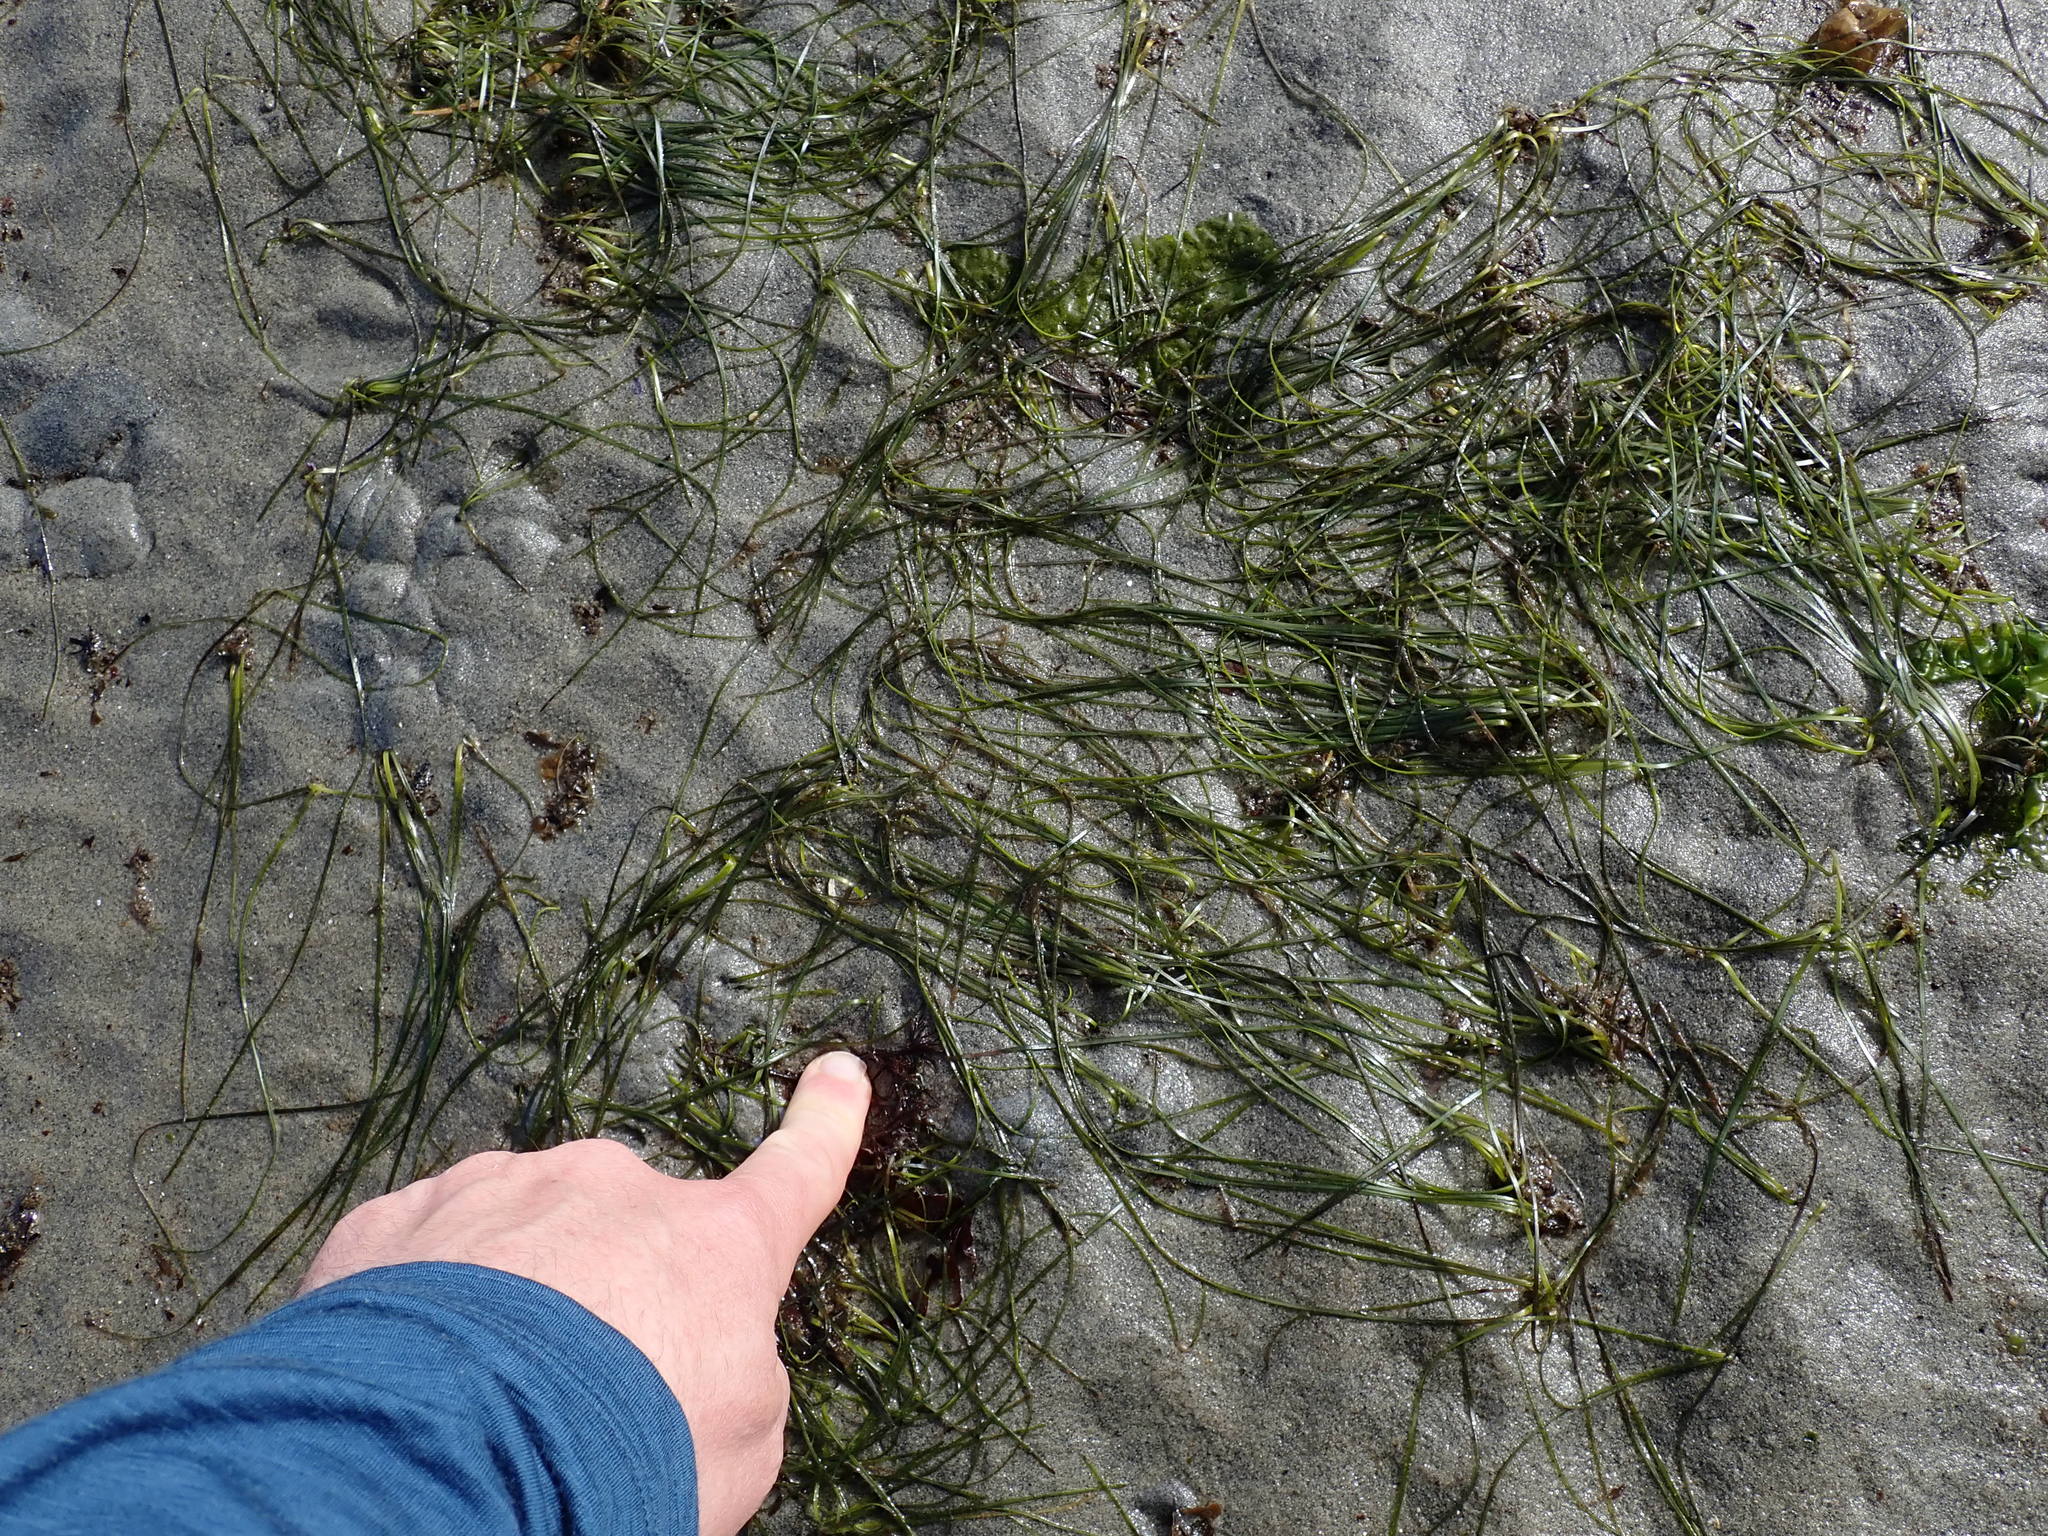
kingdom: Plantae
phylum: Tracheophyta
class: Liliopsida
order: Alismatales
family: Zosteraceae
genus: Zostera
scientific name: Zostera japonica
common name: Dwarf eelgrass
